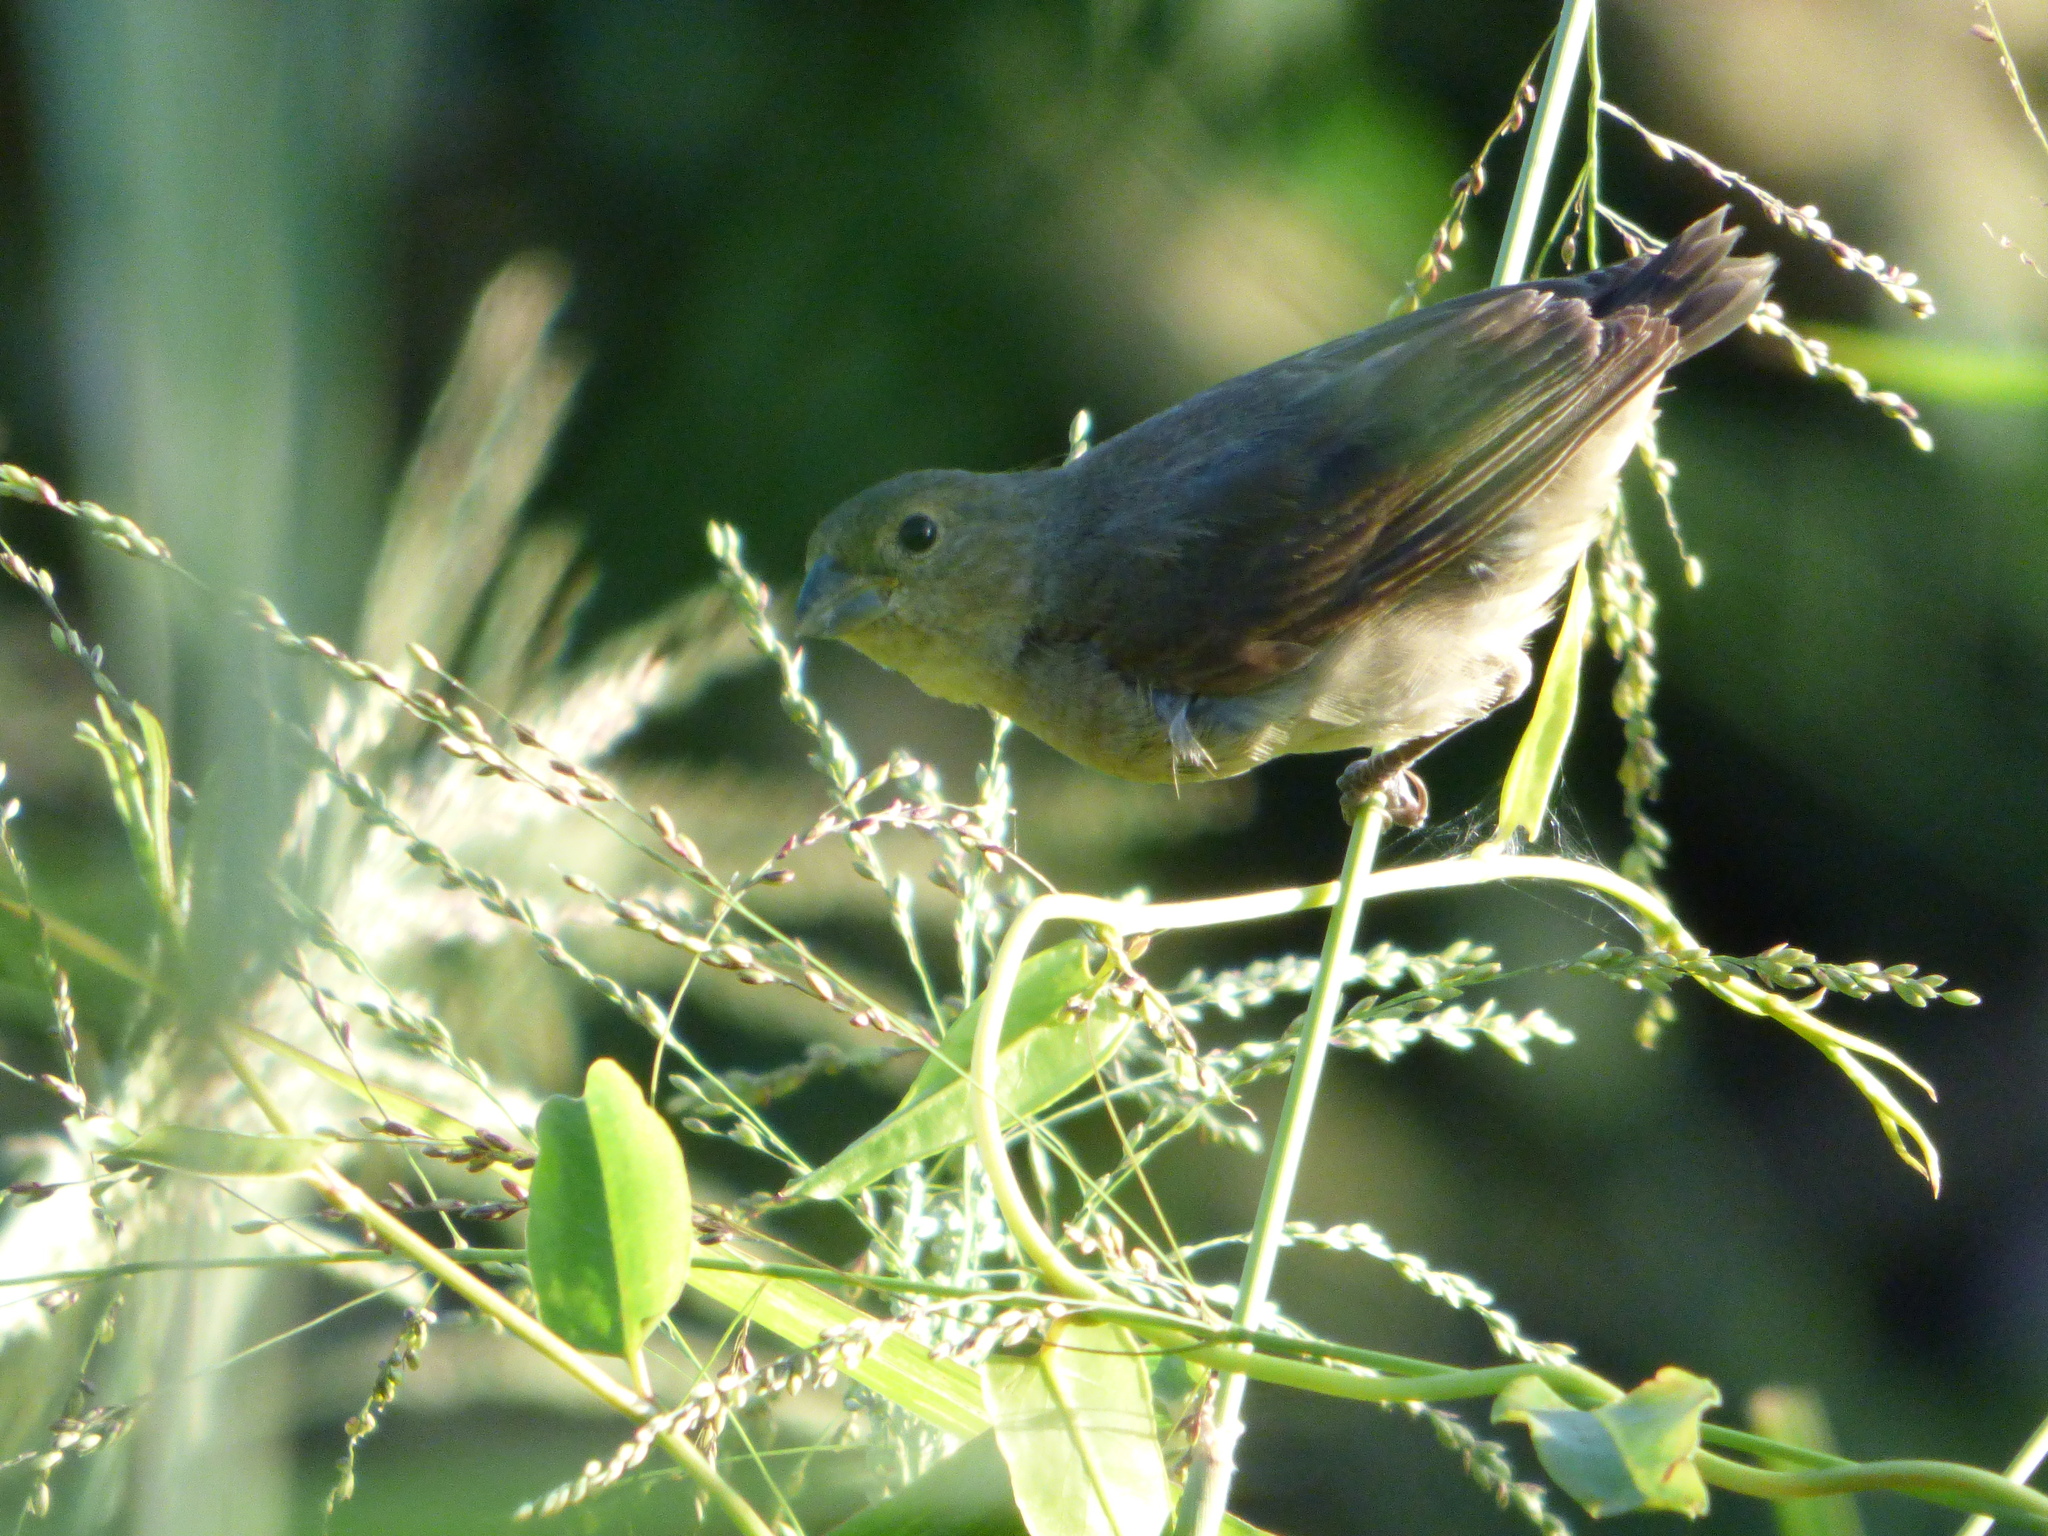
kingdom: Animalia
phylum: Chordata
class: Aves
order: Passeriformes
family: Thraupidae
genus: Sporophila
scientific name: Sporophila caerulescens
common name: Double-collared seedeater
